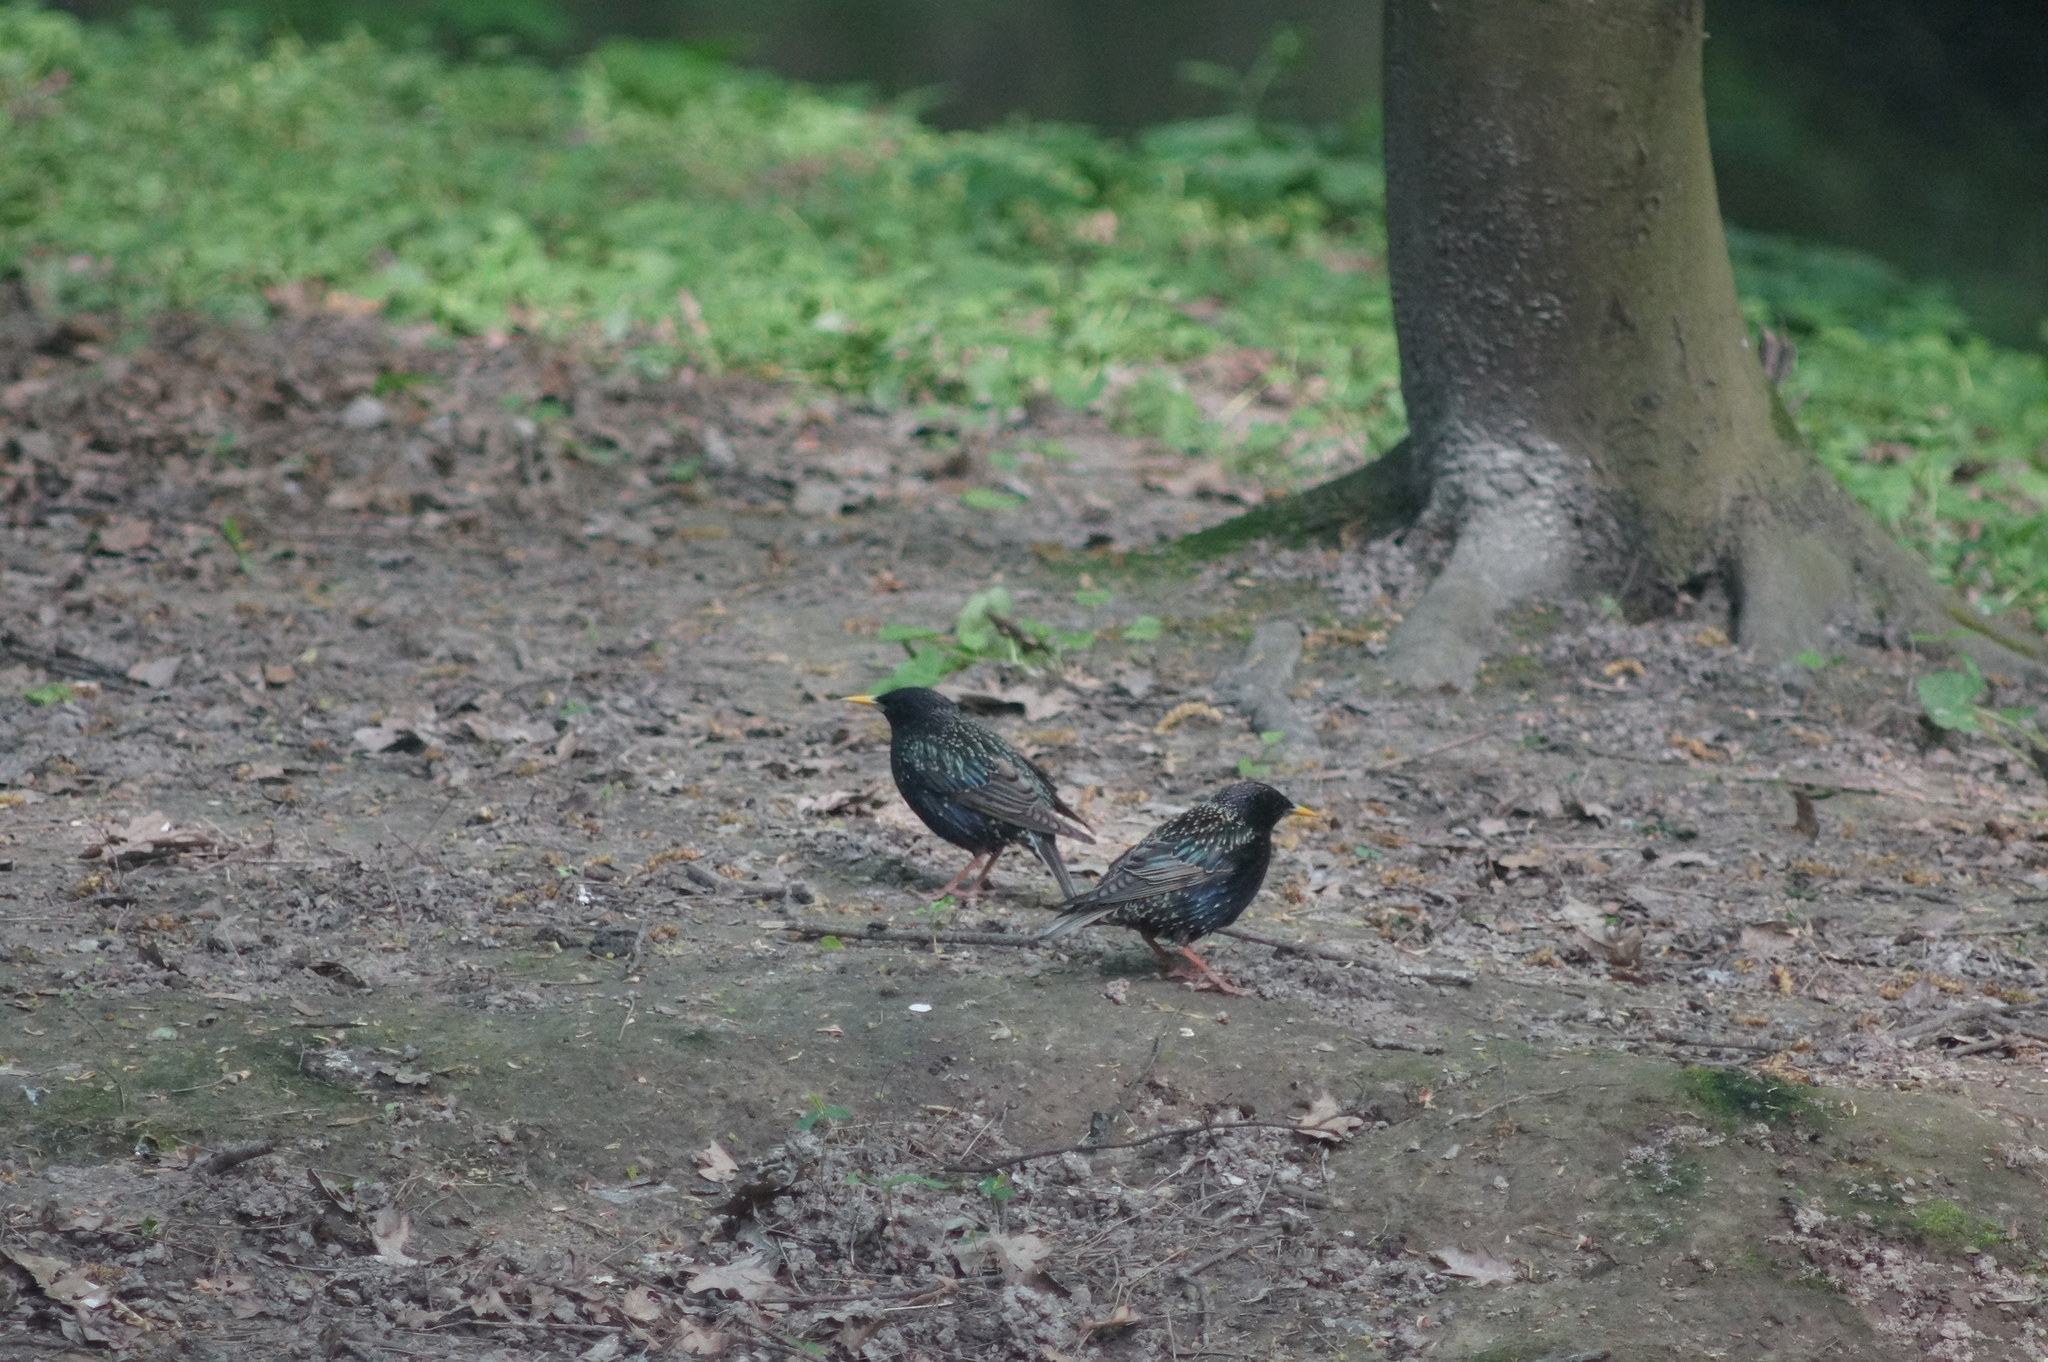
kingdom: Animalia
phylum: Chordata
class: Aves
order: Passeriformes
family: Sturnidae
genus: Sturnus
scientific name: Sturnus vulgaris
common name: Common starling
